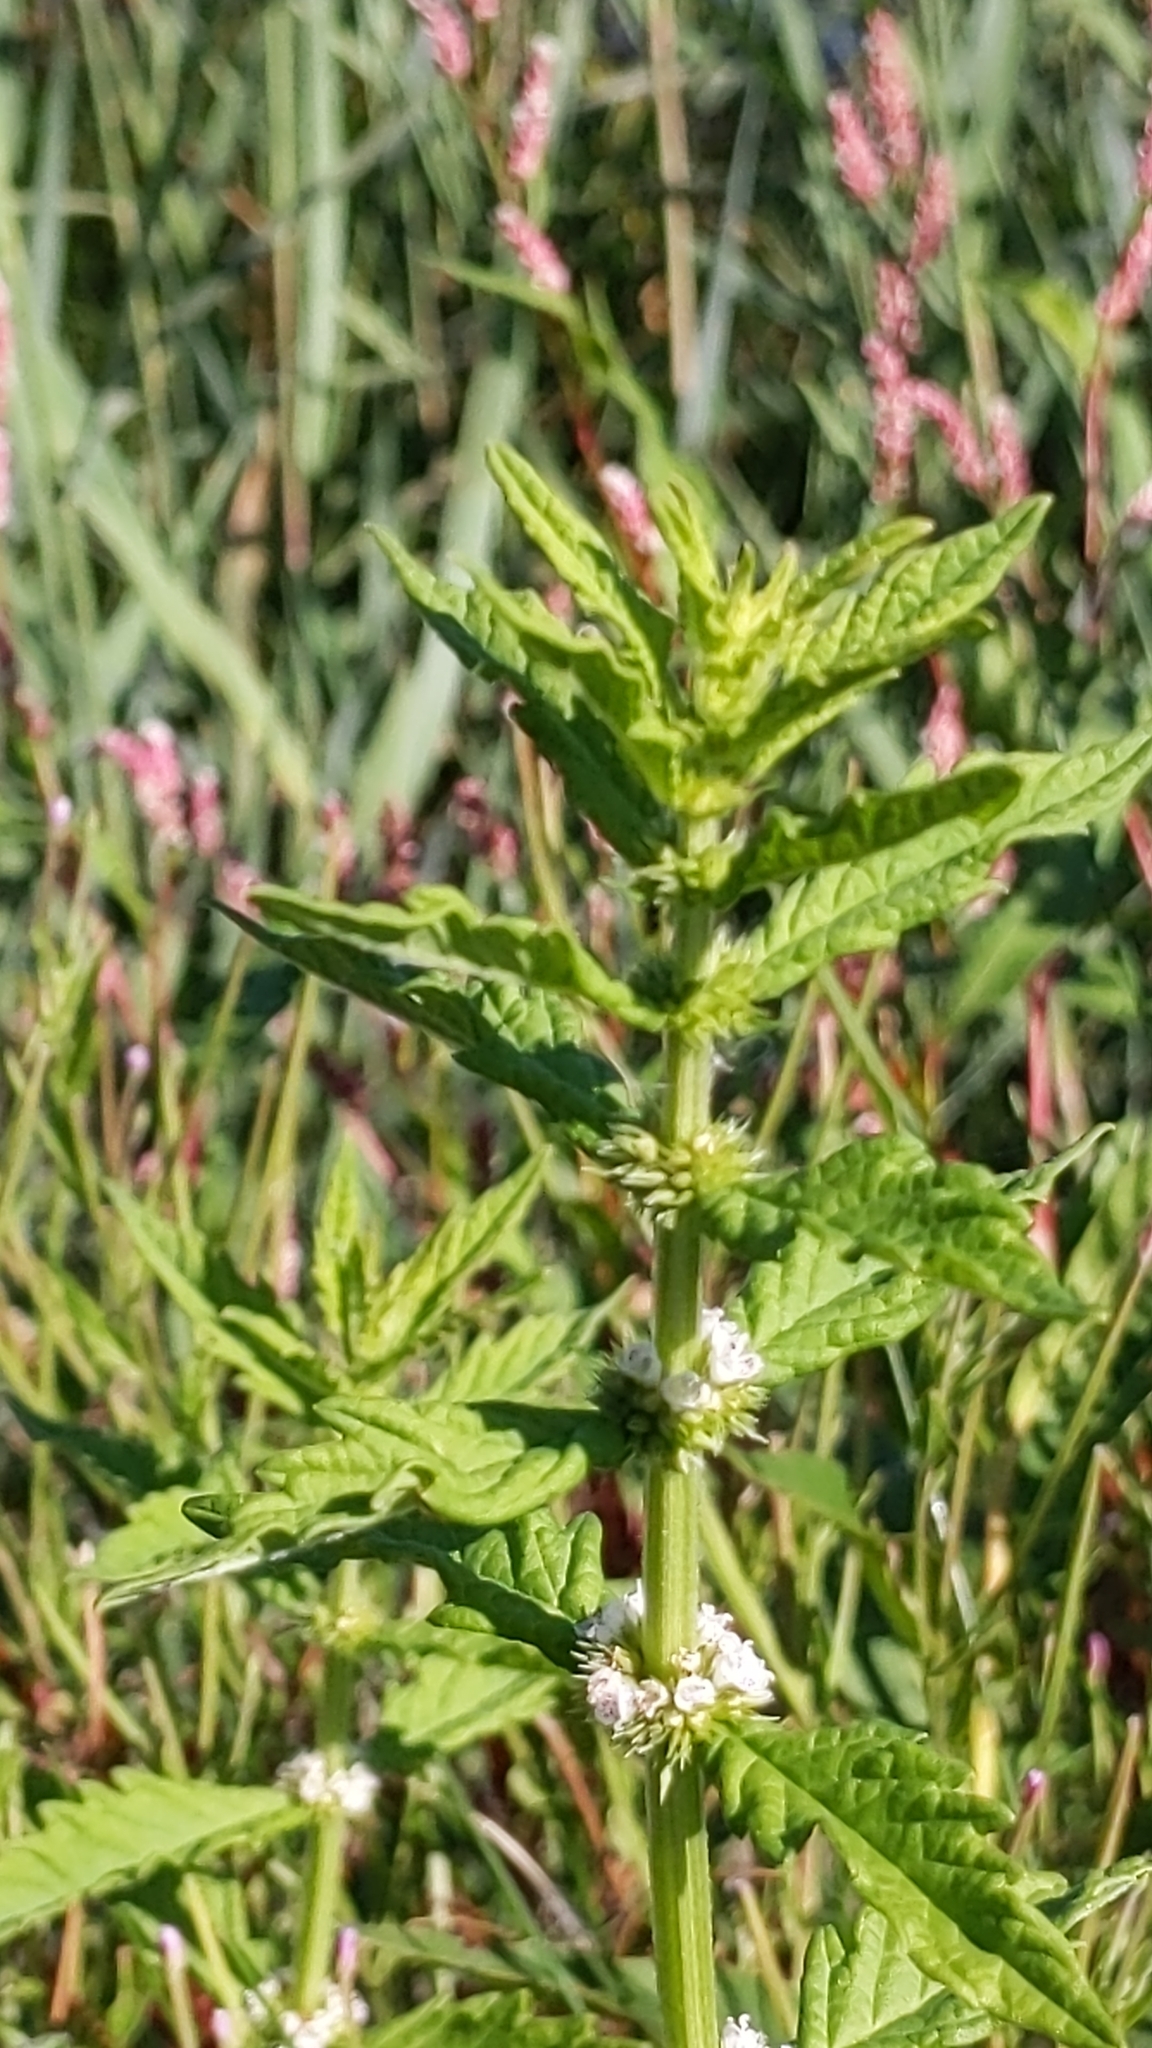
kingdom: Plantae
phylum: Tracheophyta
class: Magnoliopsida
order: Lamiales
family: Lamiaceae
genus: Lycopus
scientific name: Lycopus europaeus
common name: European bugleweed
